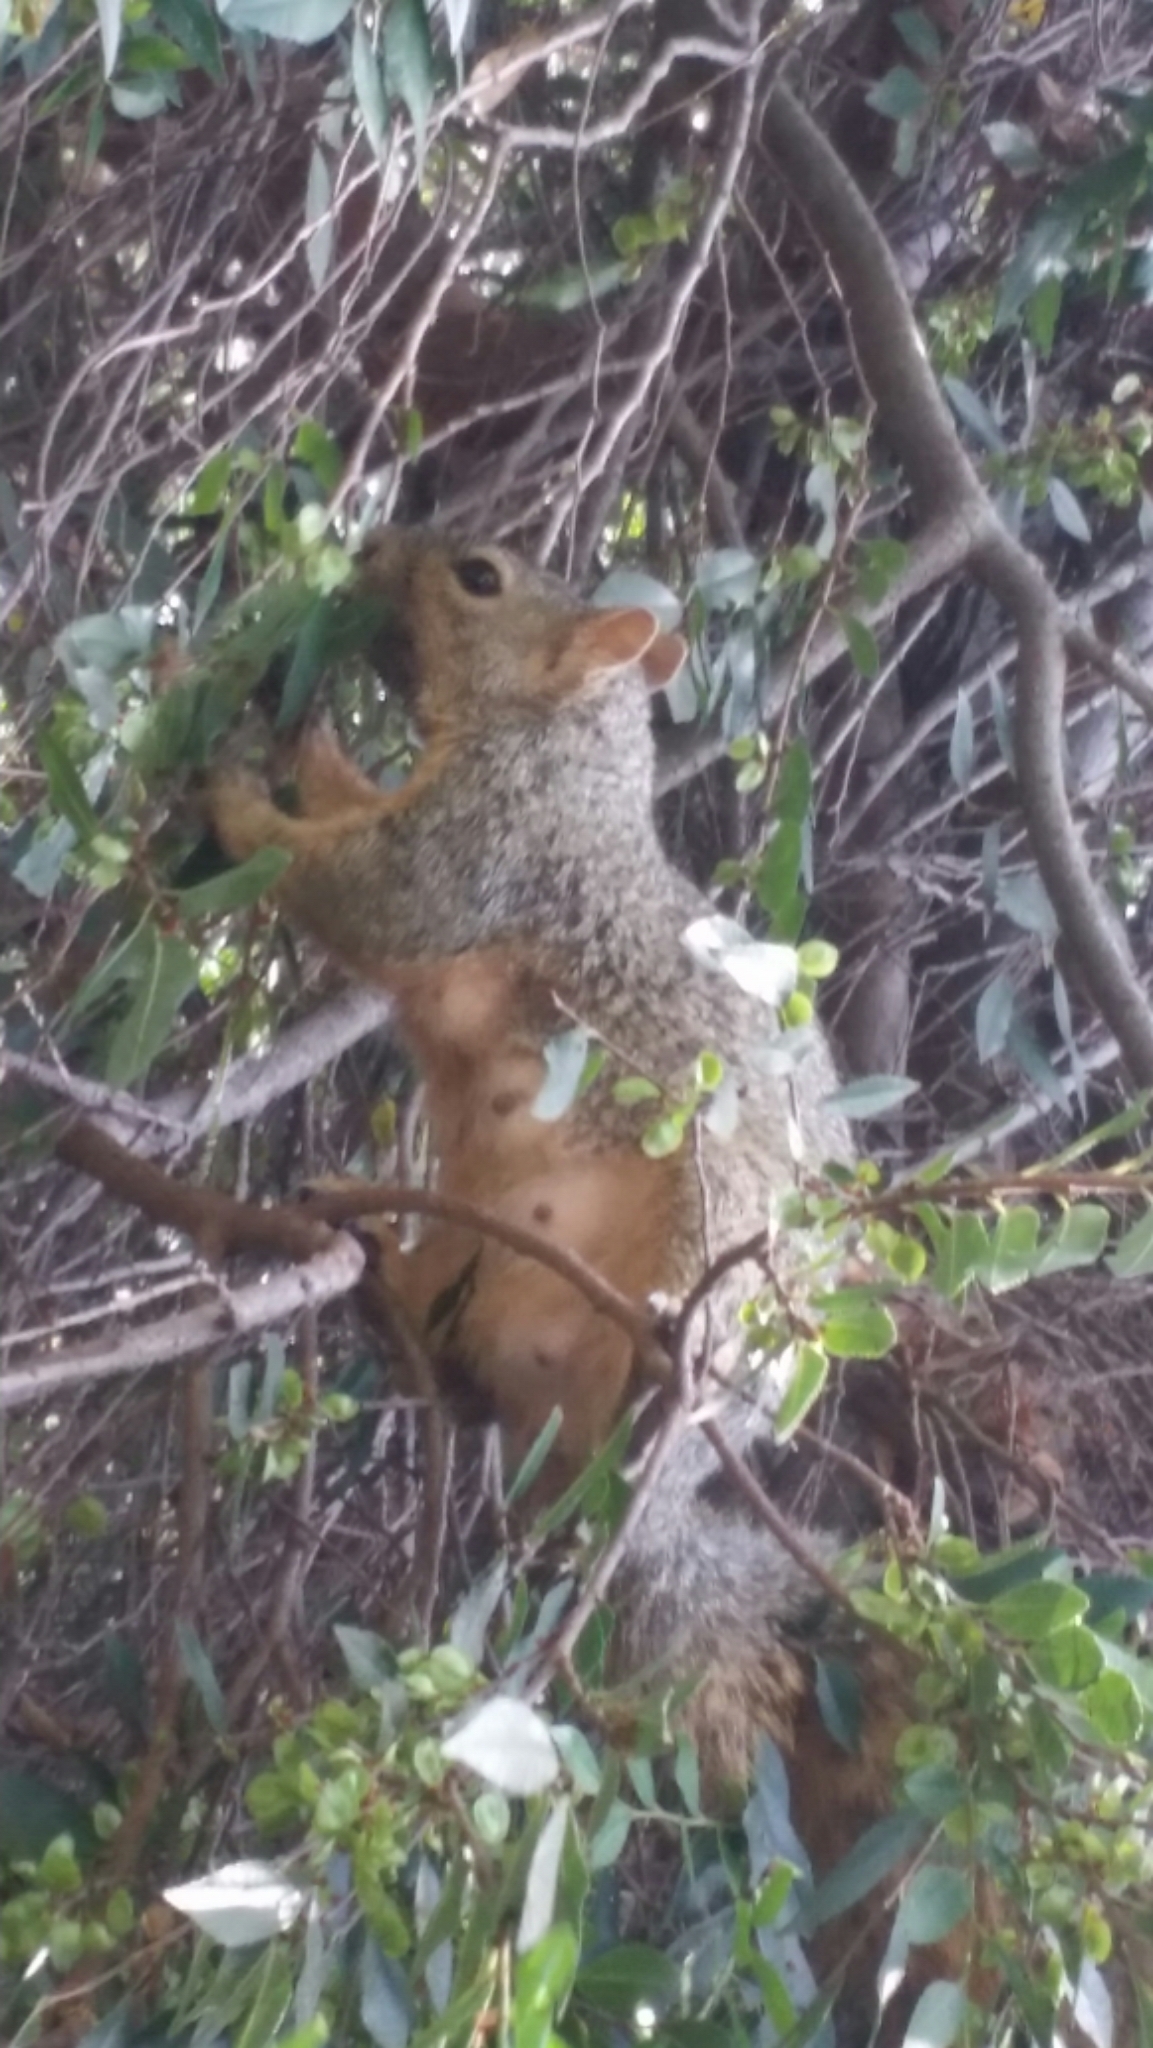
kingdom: Animalia
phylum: Chordata
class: Mammalia
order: Rodentia
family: Sciuridae
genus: Sciurus
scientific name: Sciurus niger
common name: Fox squirrel
